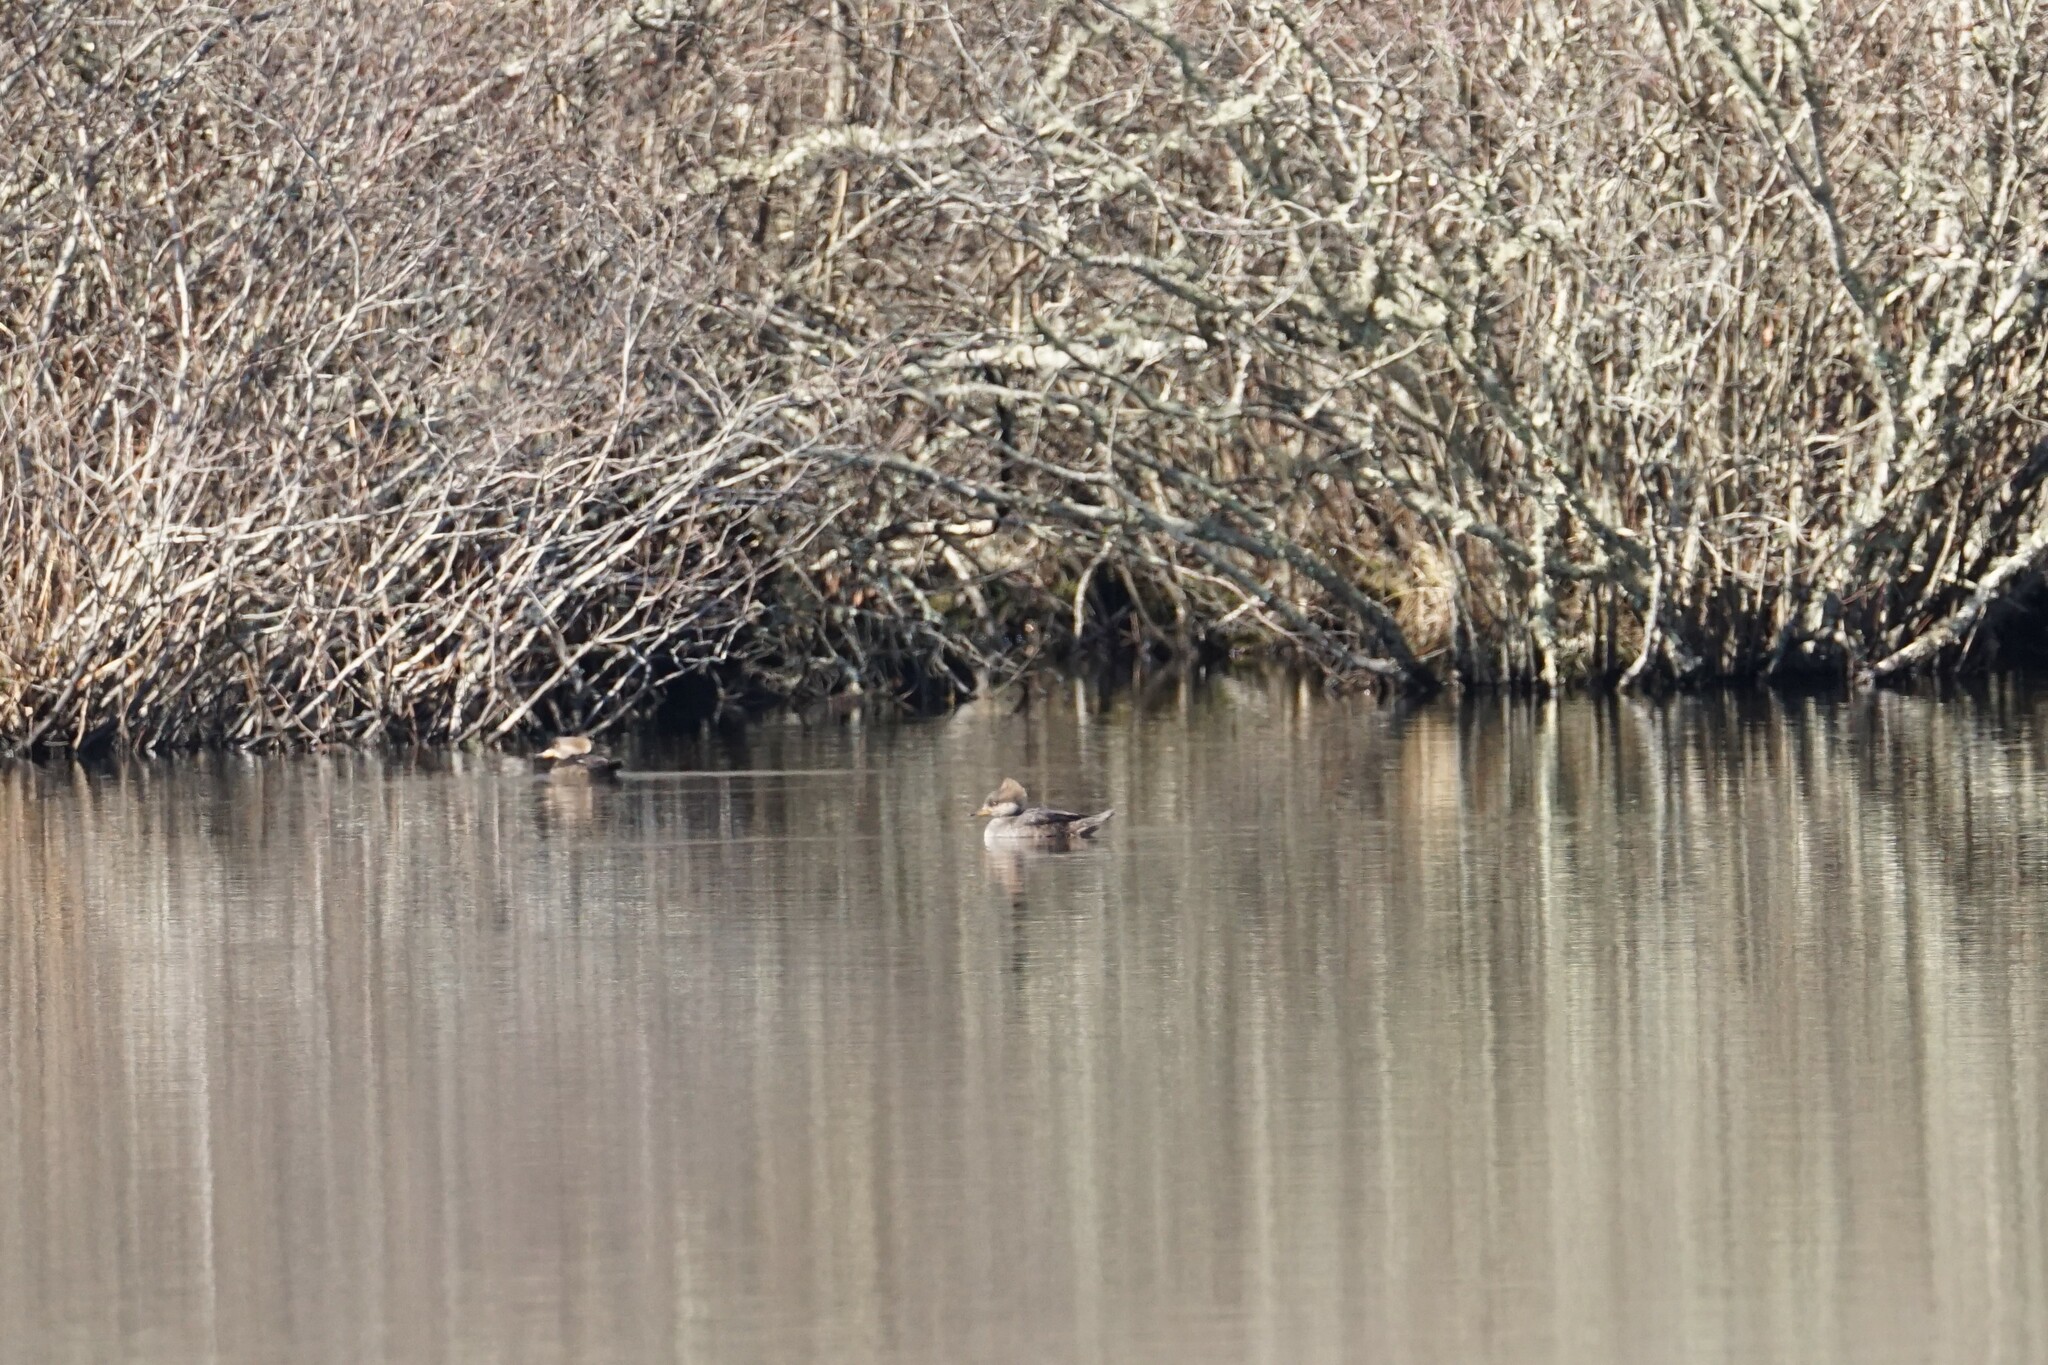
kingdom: Animalia
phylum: Chordata
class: Aves
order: Anseriformes
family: Anatidae
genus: Lophodytes
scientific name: Lophodytes cucullatus
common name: Hooded merganser
